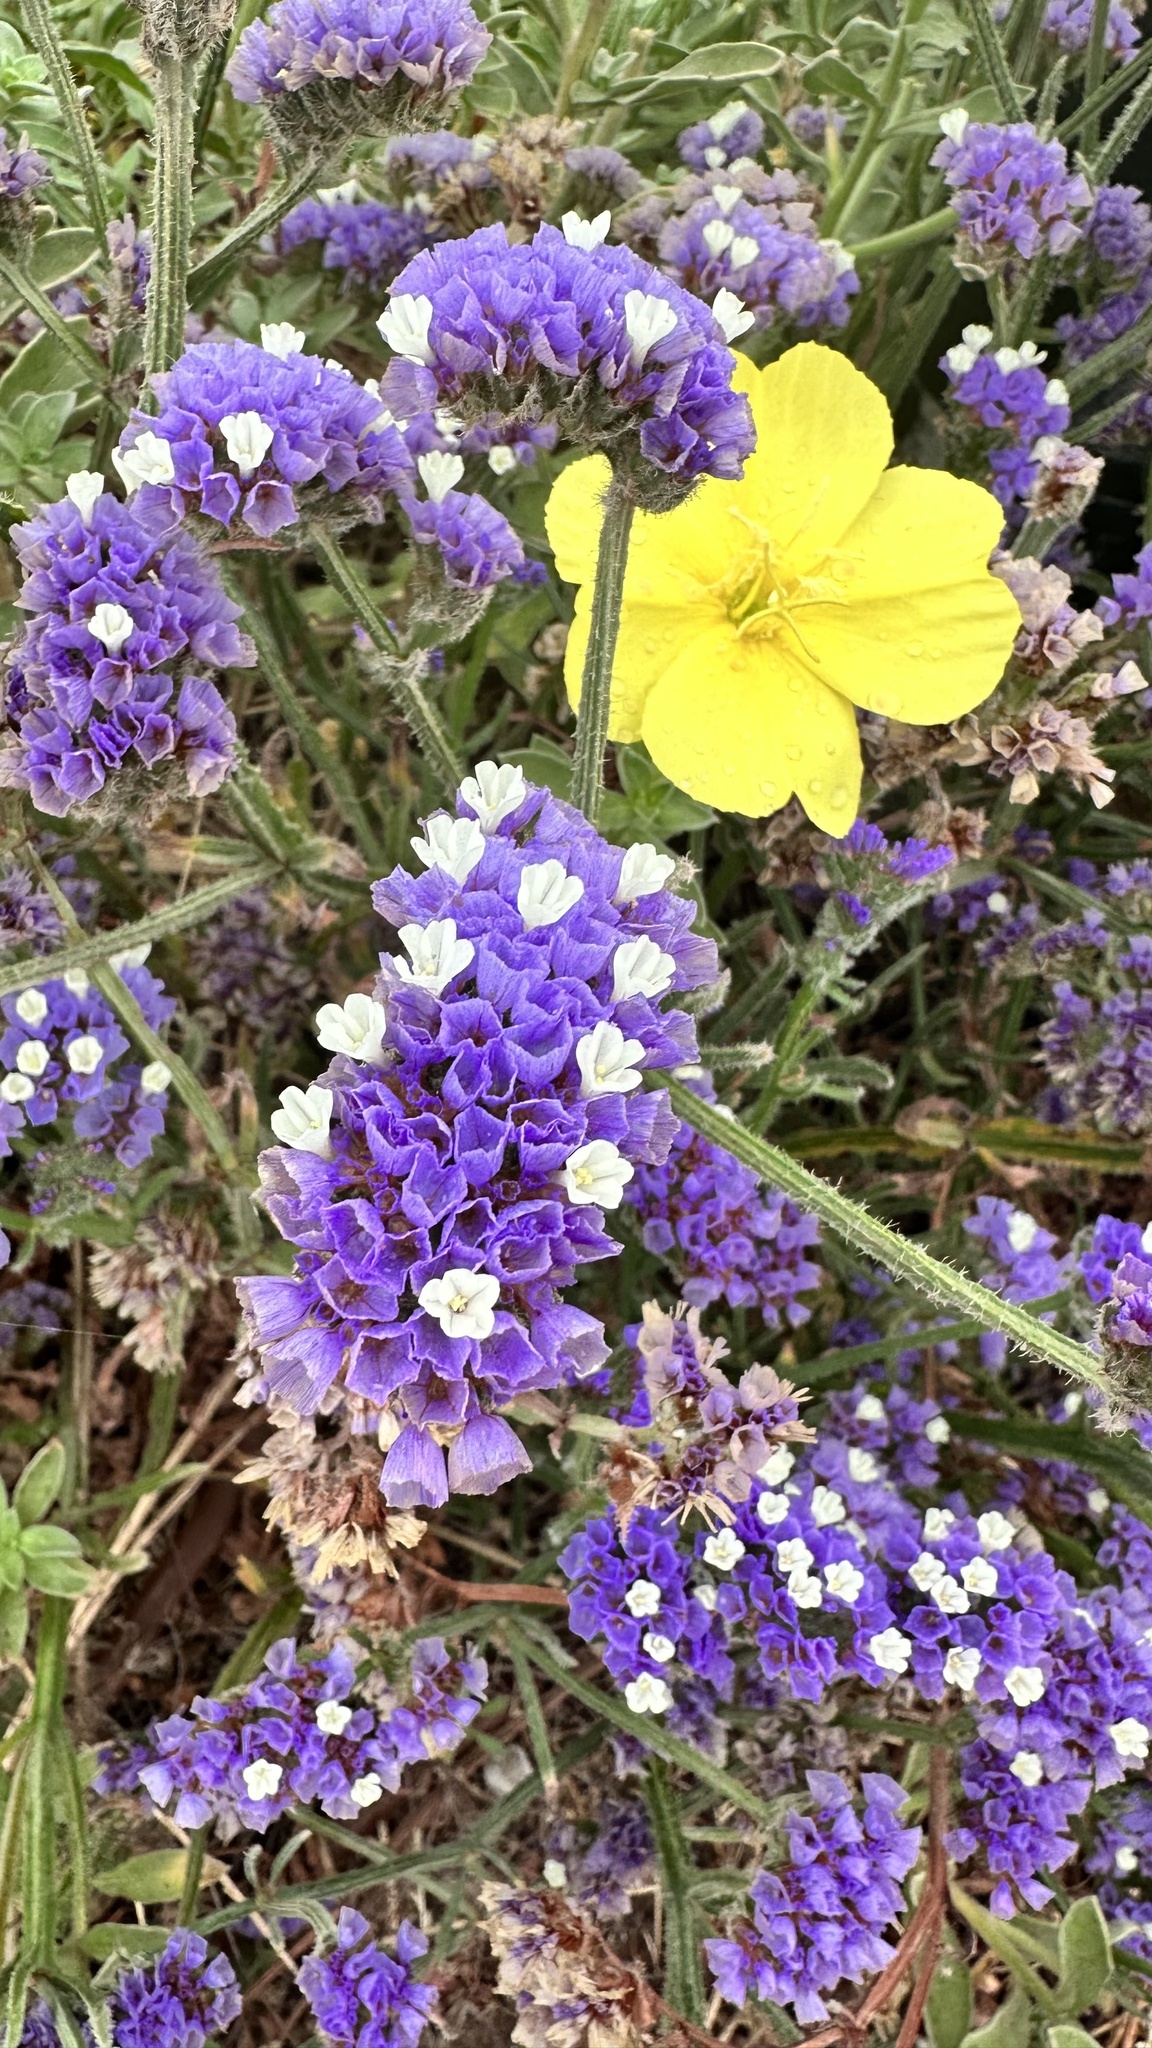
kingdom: Plantae
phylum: Tracheophyta
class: Magnoliopsida
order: Caryophyllales
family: Plumbaginaceae
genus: Limonium
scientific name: Limonium sinuatum
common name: Statice
